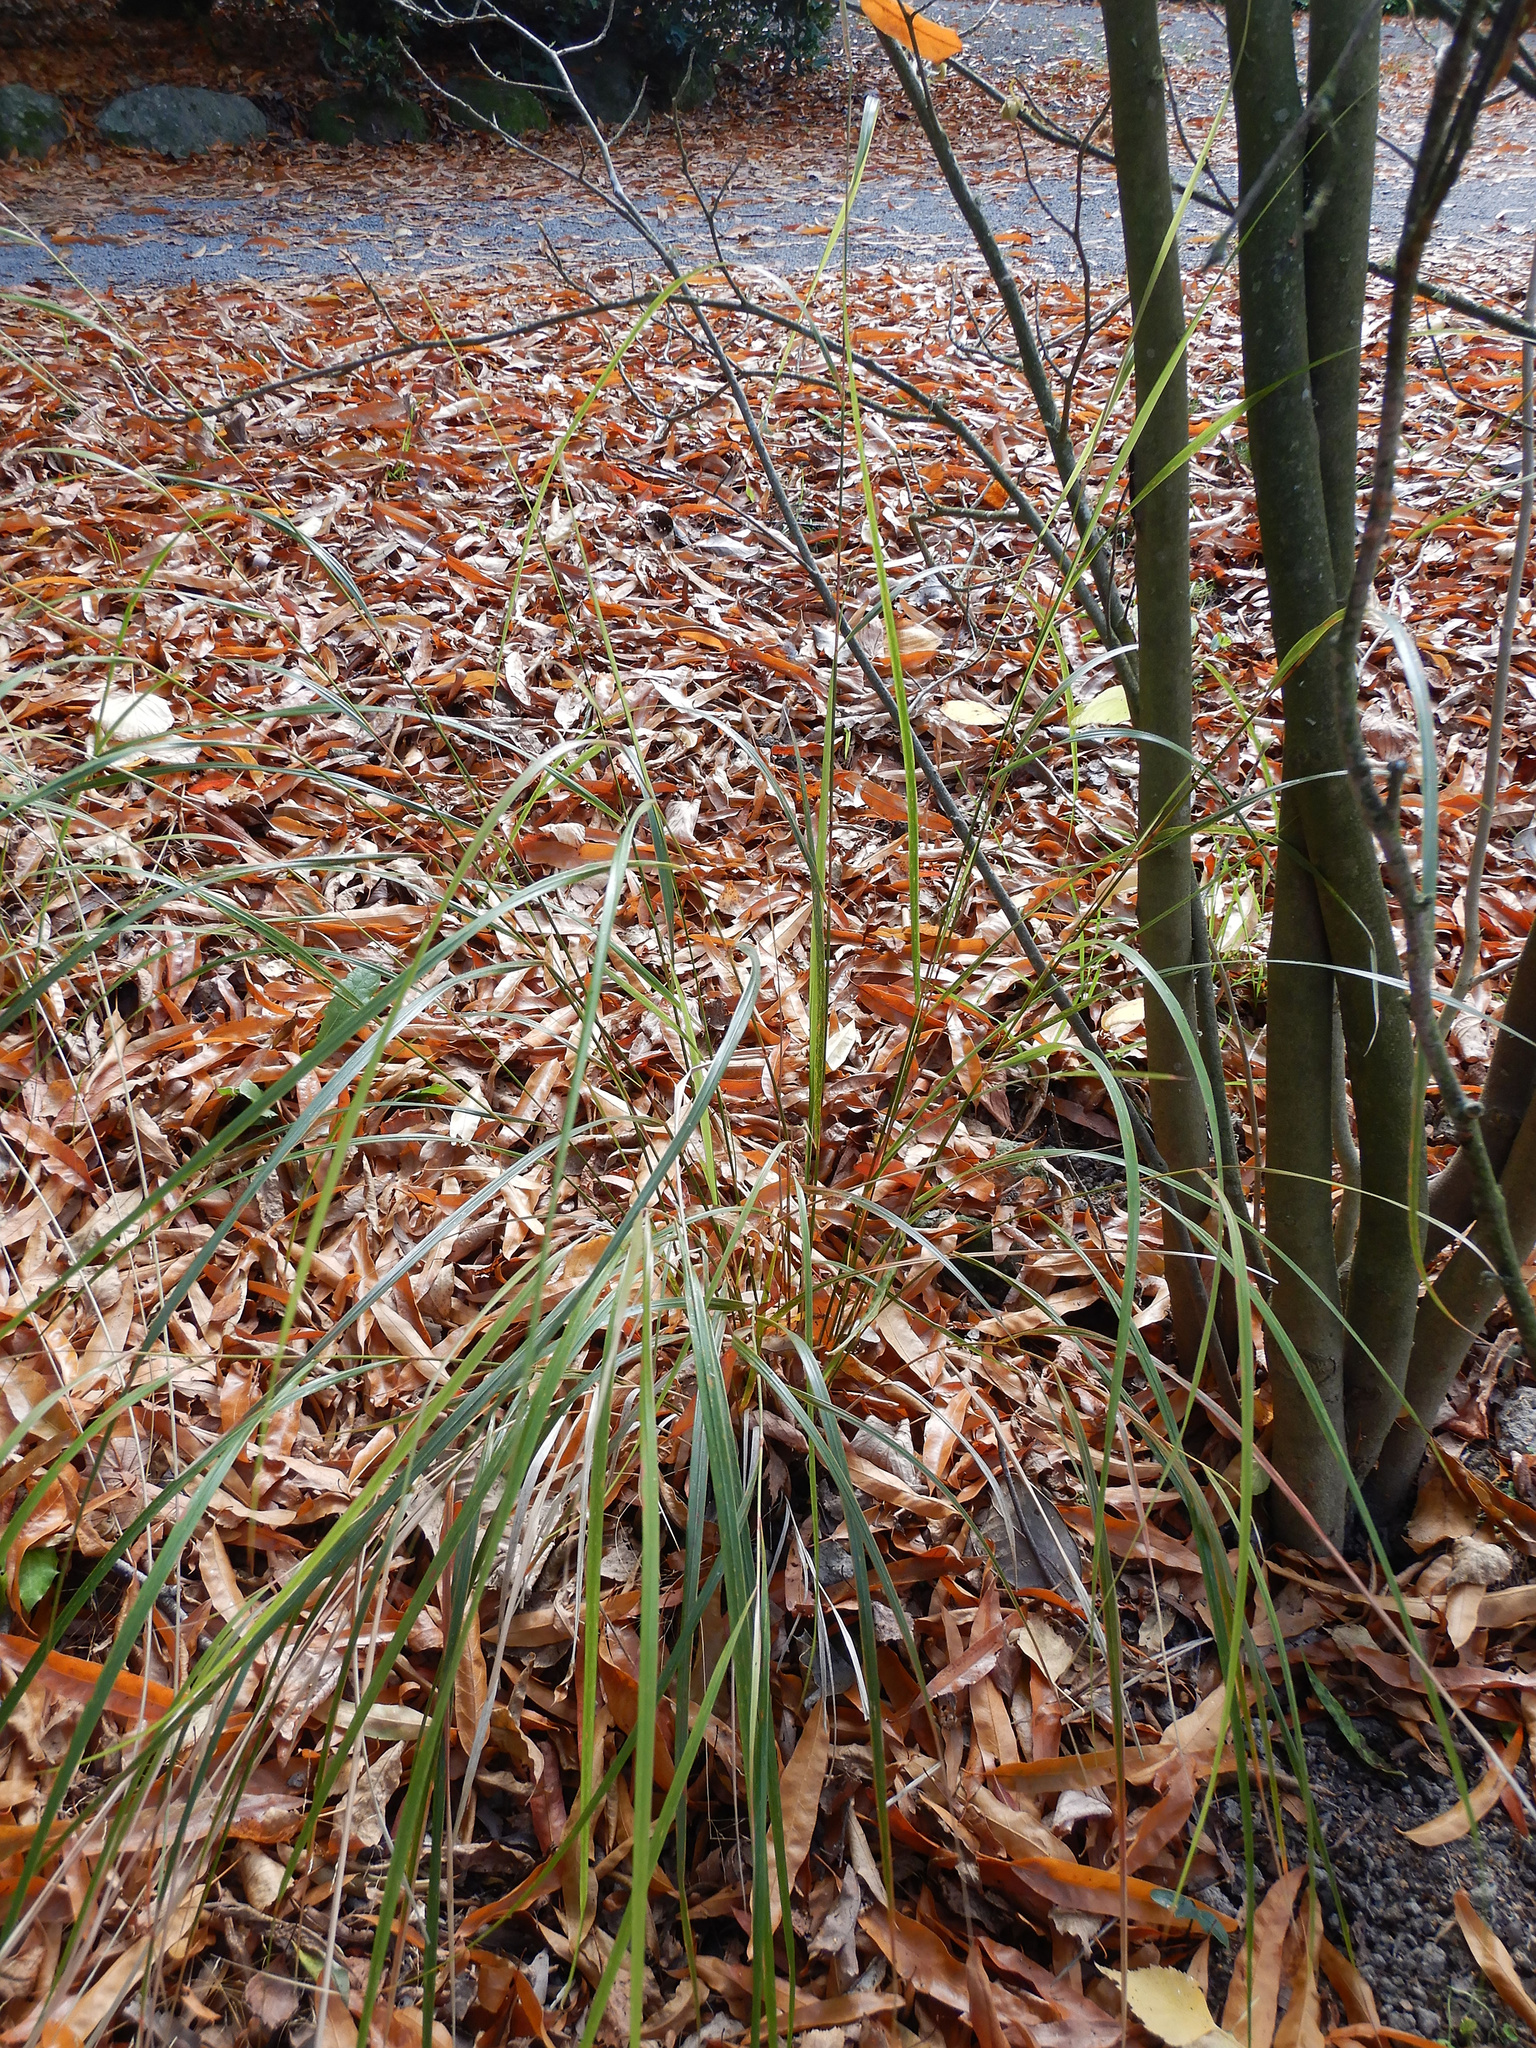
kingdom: Plantae
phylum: Tracheophyta
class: Liliopsida
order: Poales
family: Poaceae
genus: Anemanthele
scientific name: Anemanthele lessoniana
